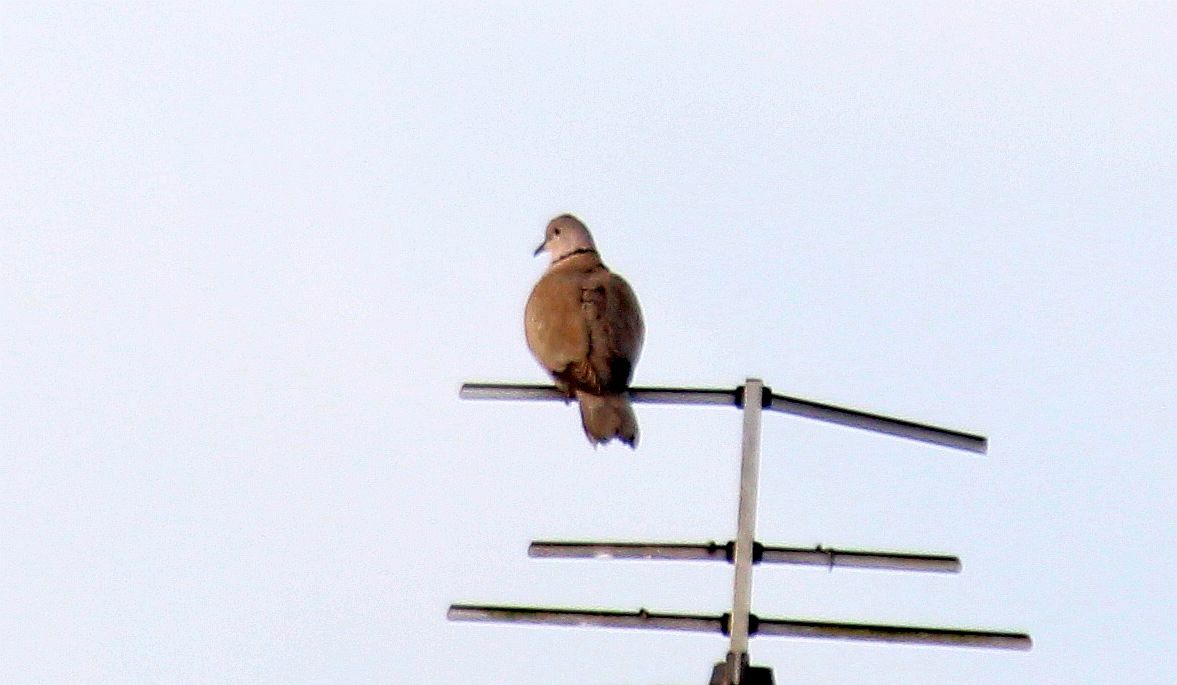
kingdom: Animalia
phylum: Chordata
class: Aves
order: Columbiformes
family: Columbidae
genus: Streptopelia
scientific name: Streptopelia decaocto
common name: Eurasian collared dove
